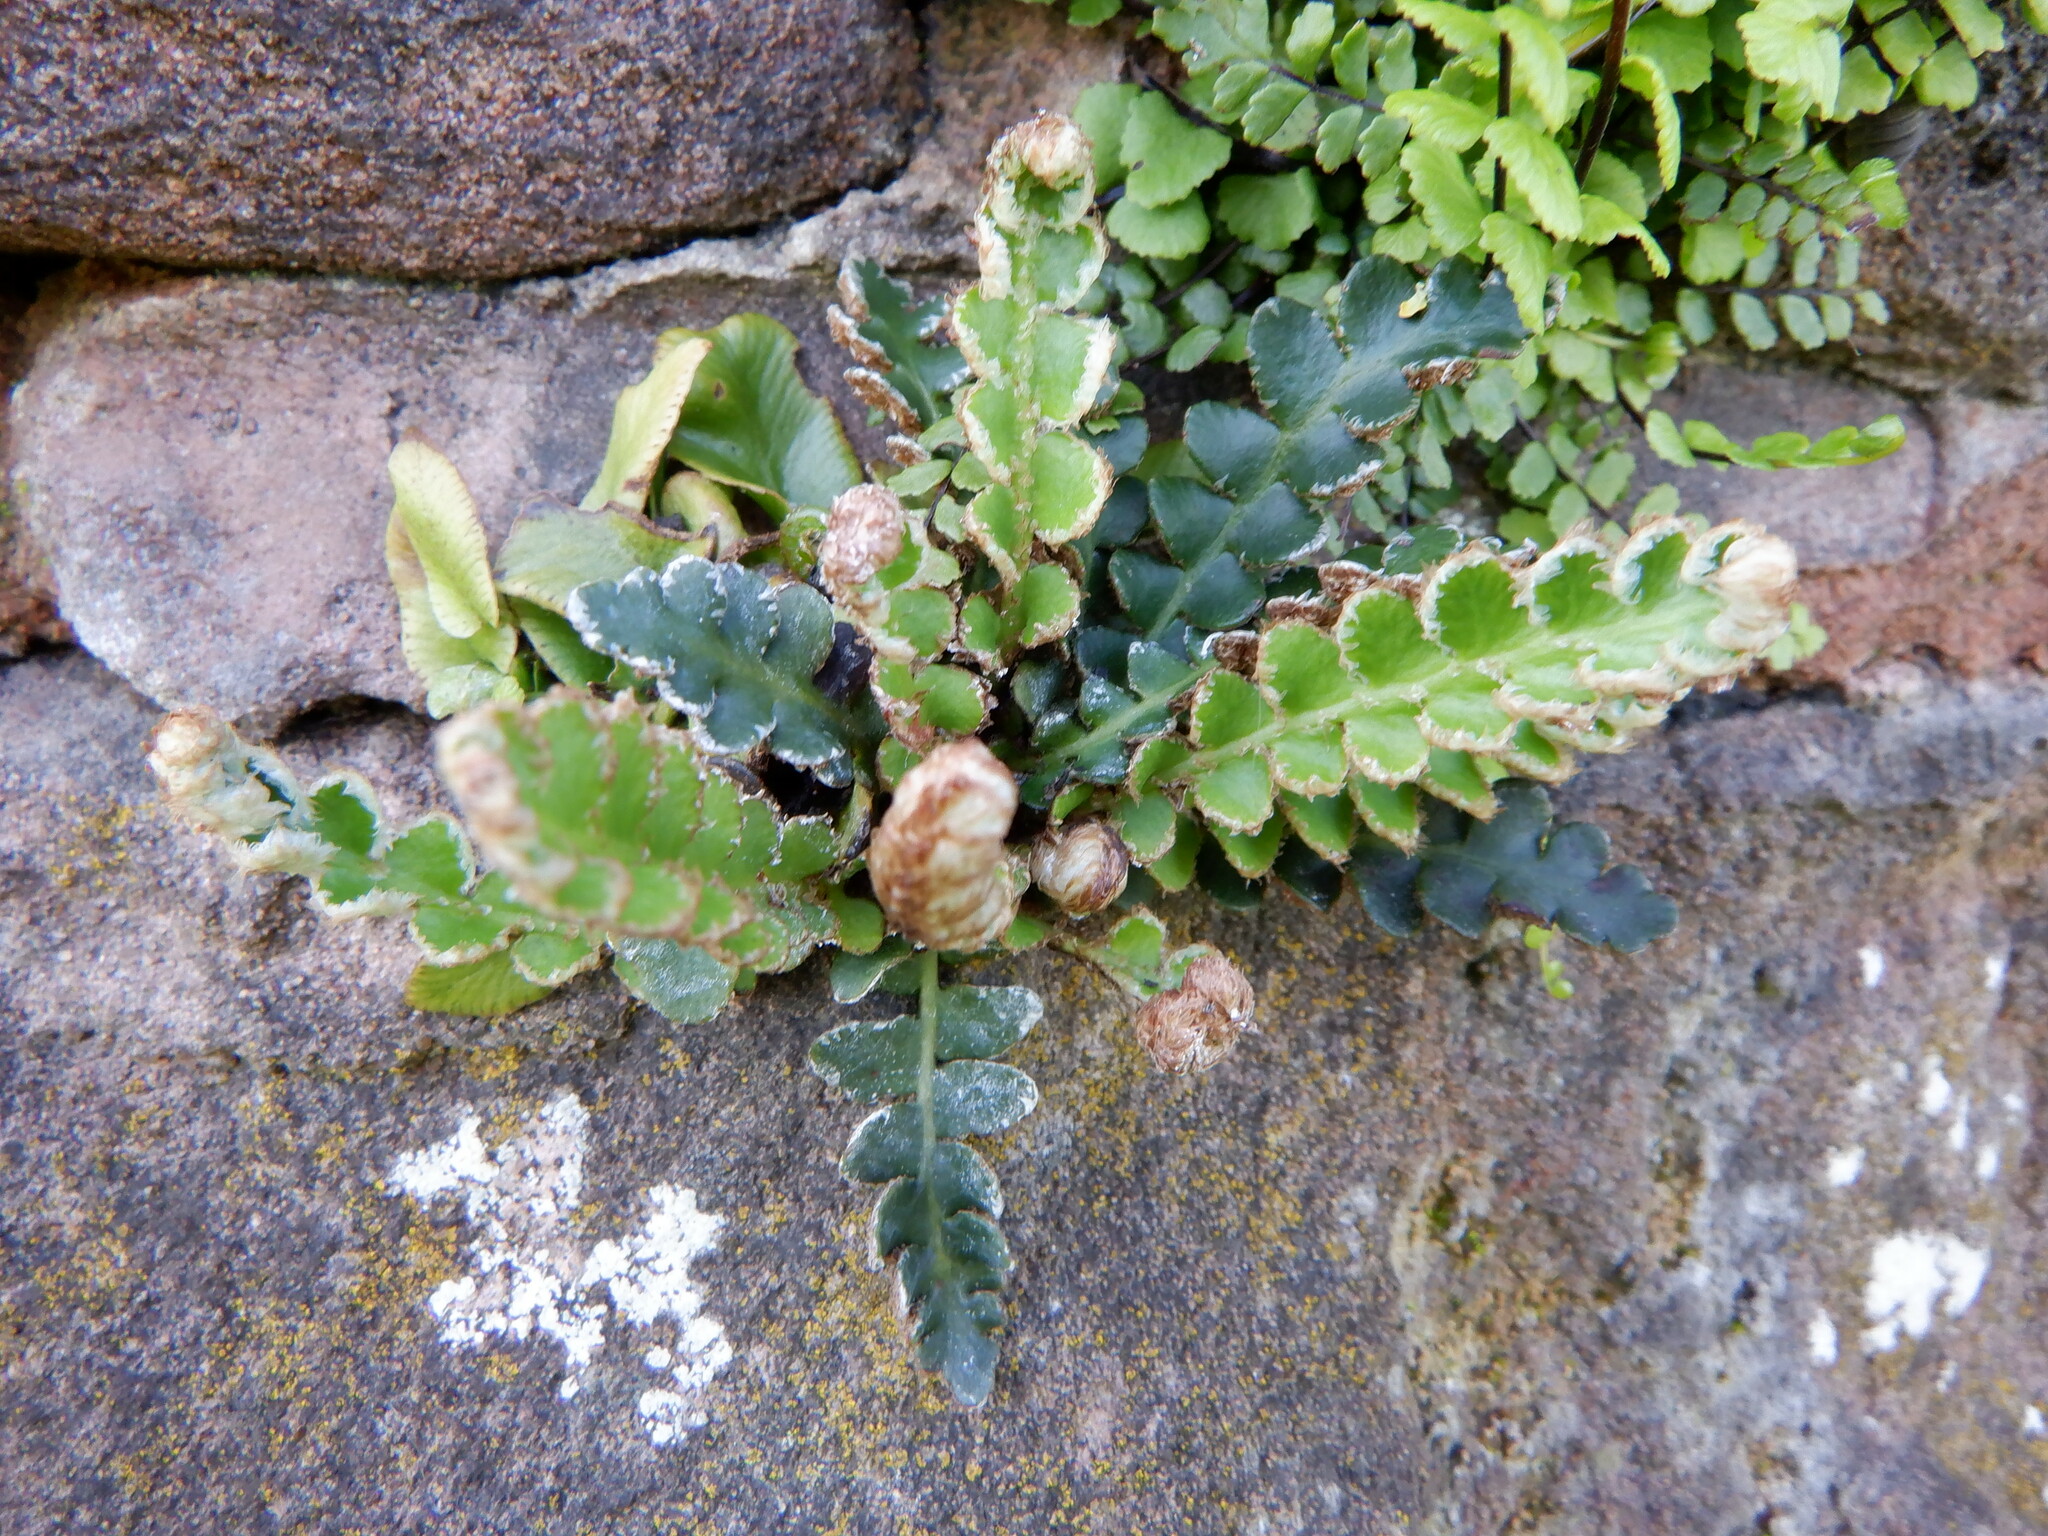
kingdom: Plantae
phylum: Tracheophyta
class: Polypodiopsida
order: Polypodiales
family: Aspleniaceae
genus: Asplenium
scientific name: Asplenium ceterach
